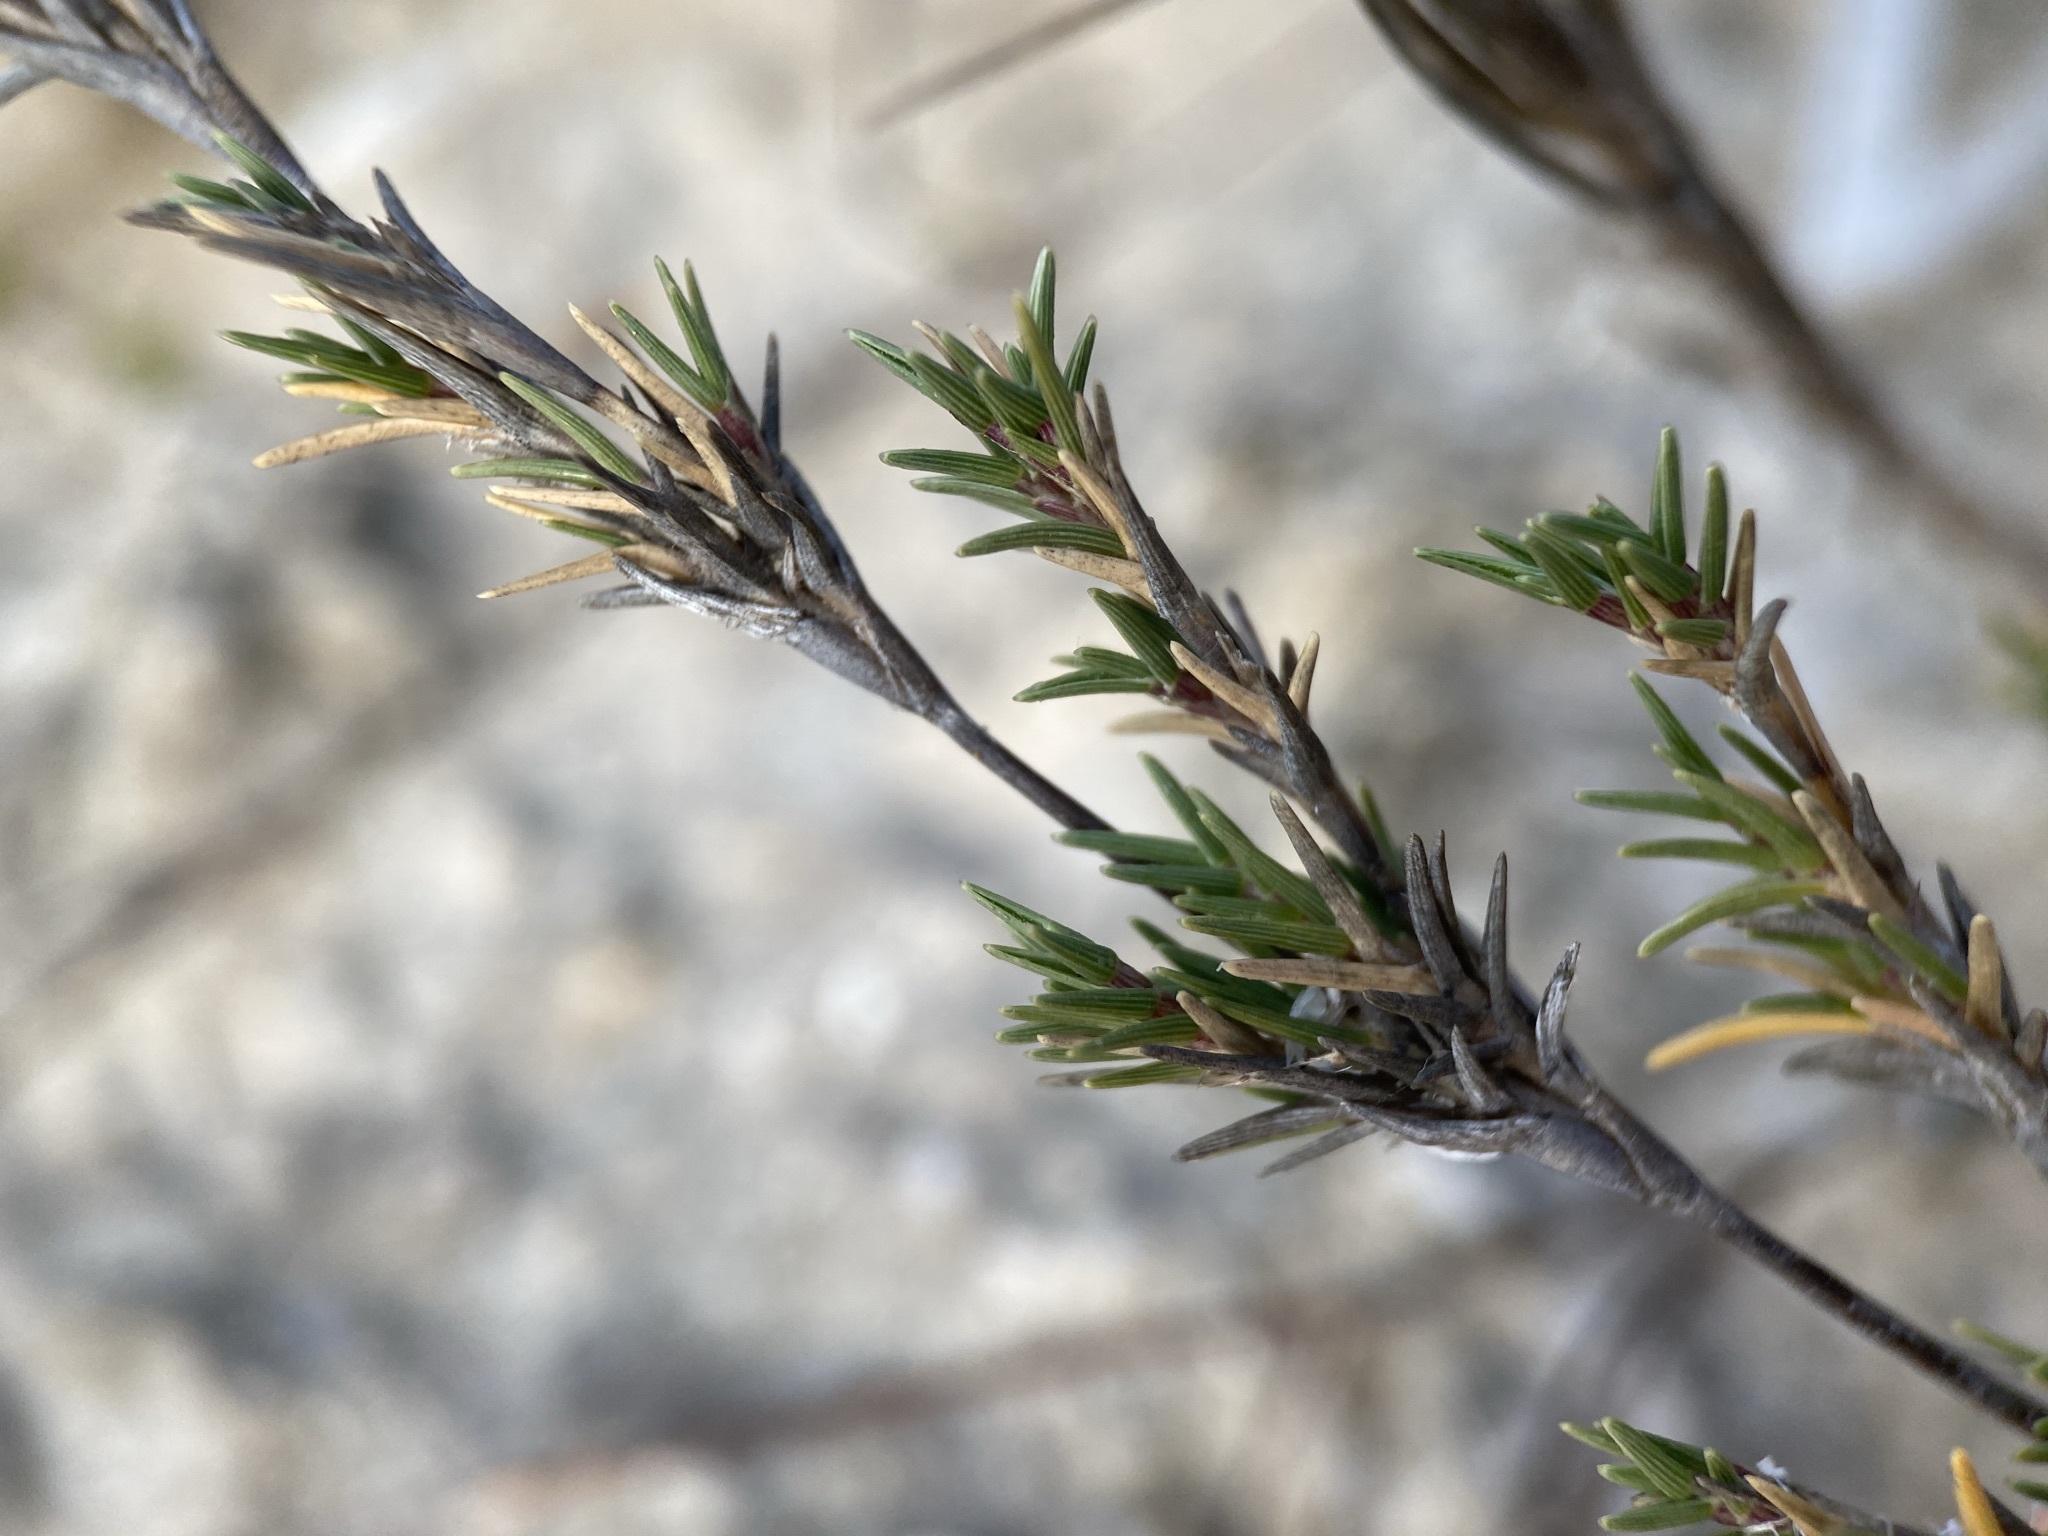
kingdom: Plantae
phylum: Tracheophyta
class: Liliopsida
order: Poales
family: Poaceae
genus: Distichlis
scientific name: Distichlis littoralis
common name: Shore grass
